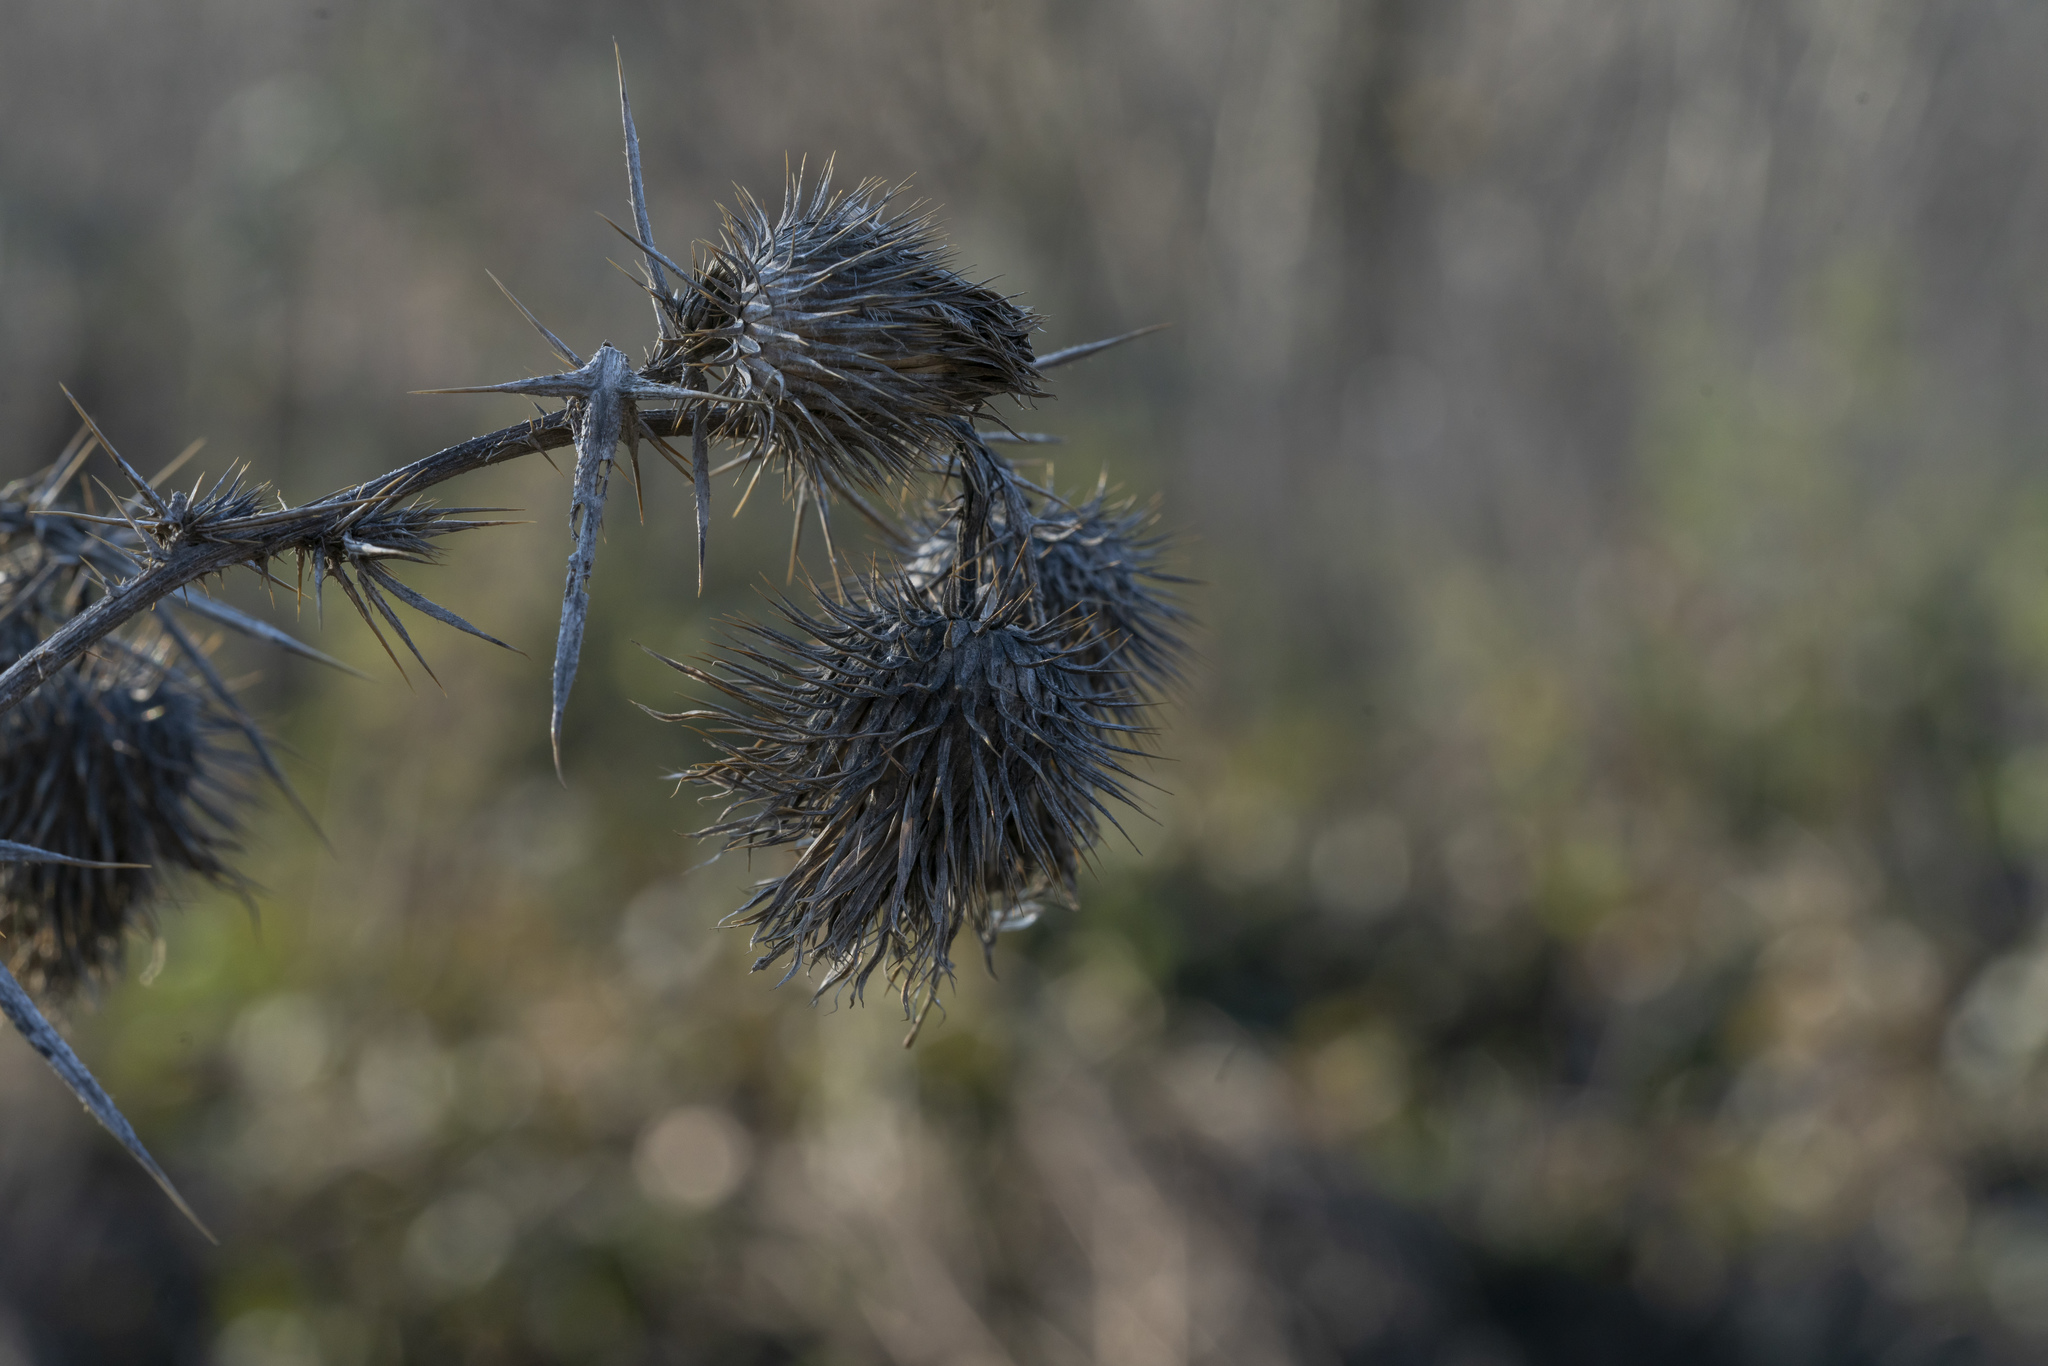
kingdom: Plantae
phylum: Tracheophyta
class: Magnoliopsida
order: Asterales
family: Asteraceae
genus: Cirsium
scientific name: Cirsium vulgare
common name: Bull thistle
